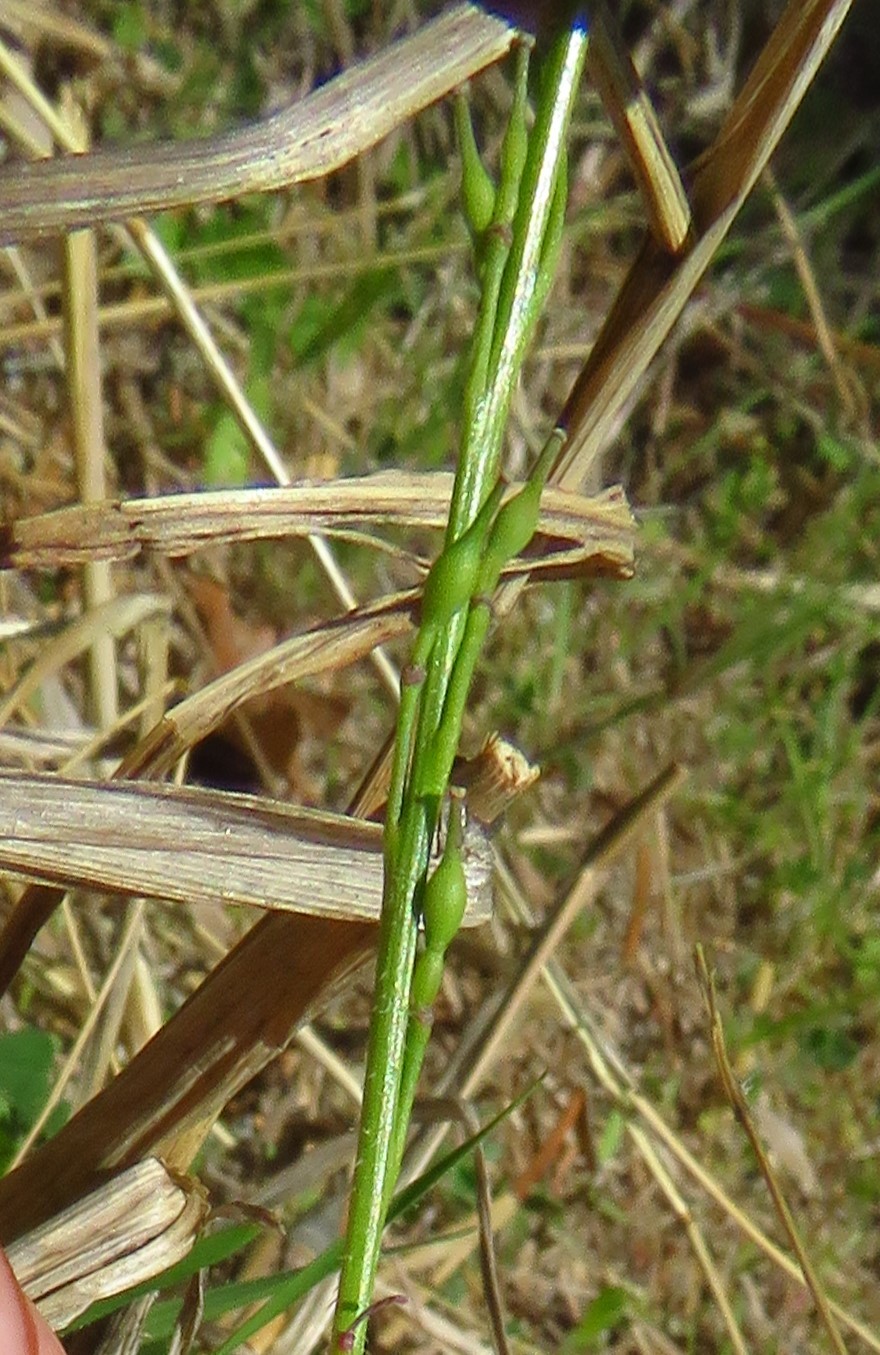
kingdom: Plantae
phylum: Tracheophyta
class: Magnoliopsida
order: Brassicales
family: Brassicaceae
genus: Rapistrum
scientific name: Rapistrum rugosum
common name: Annual bastardcabbage
